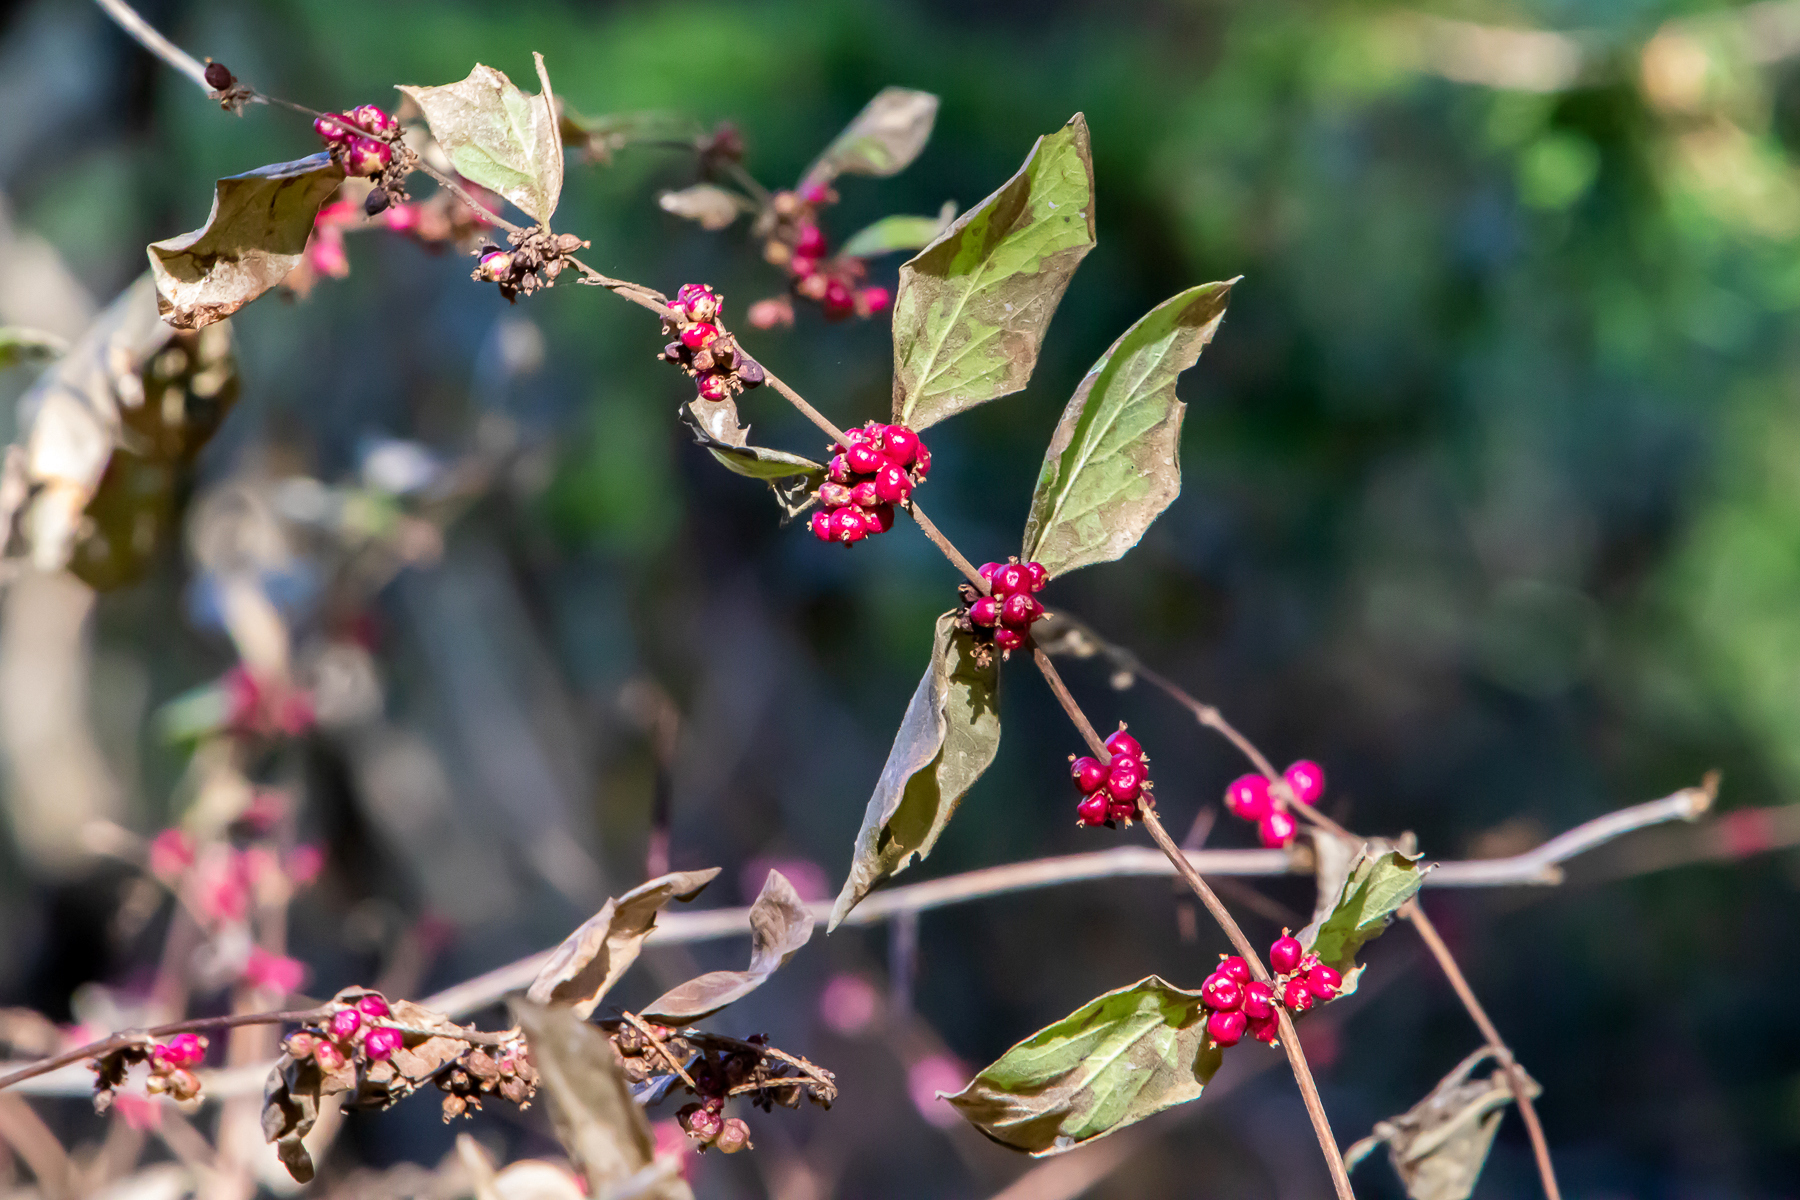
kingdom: Plantae
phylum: Tracheophyta
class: Magnoliopsida
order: Dipsacales
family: Caprifoliaceae
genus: Symphoricarpos
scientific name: Symphoricarpos orbiculatus
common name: Coralberry
